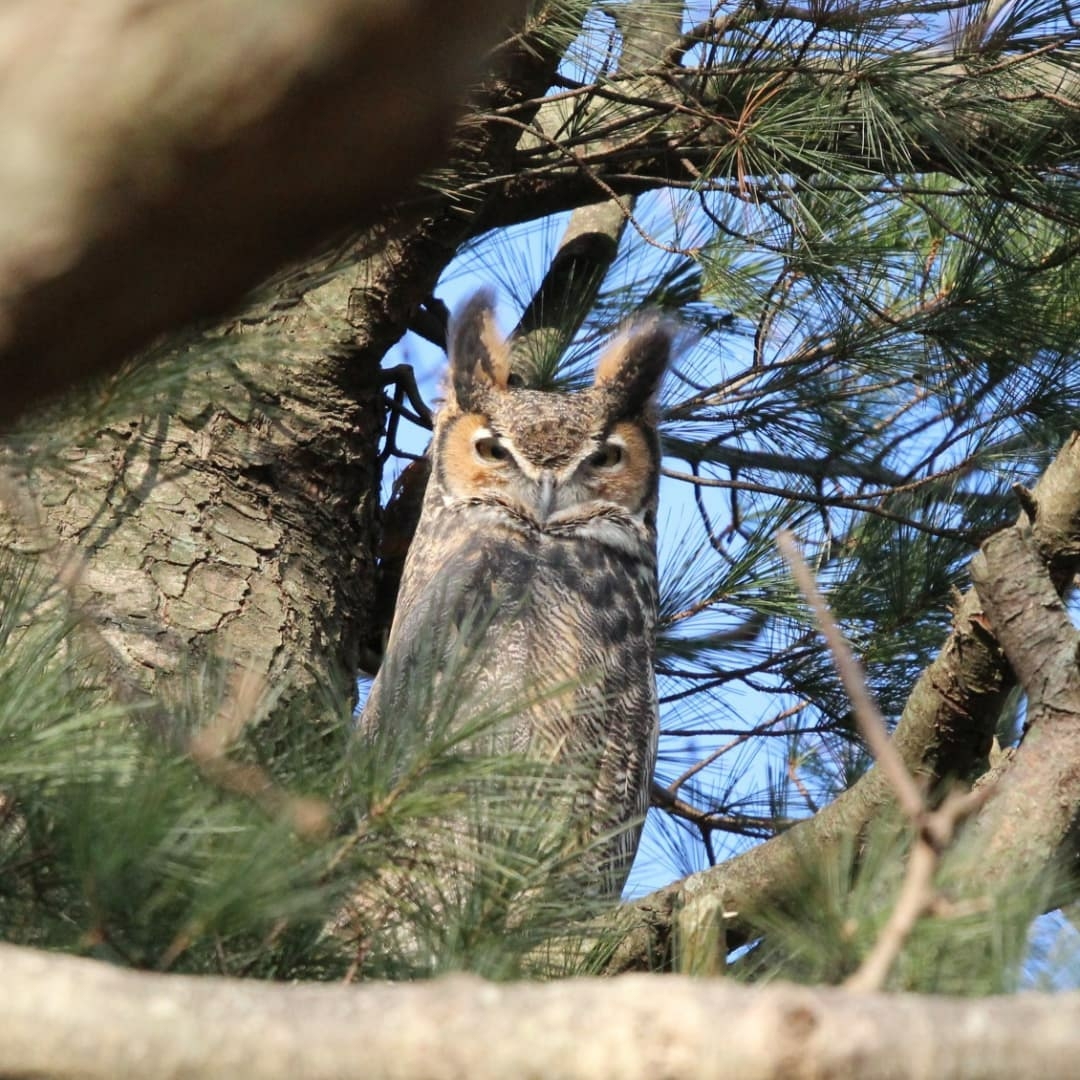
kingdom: Animalia
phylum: Chordata
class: Aves
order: Strigiformes
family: Strigidae
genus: Bubo
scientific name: Bubo virginianus
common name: Great horned owl
